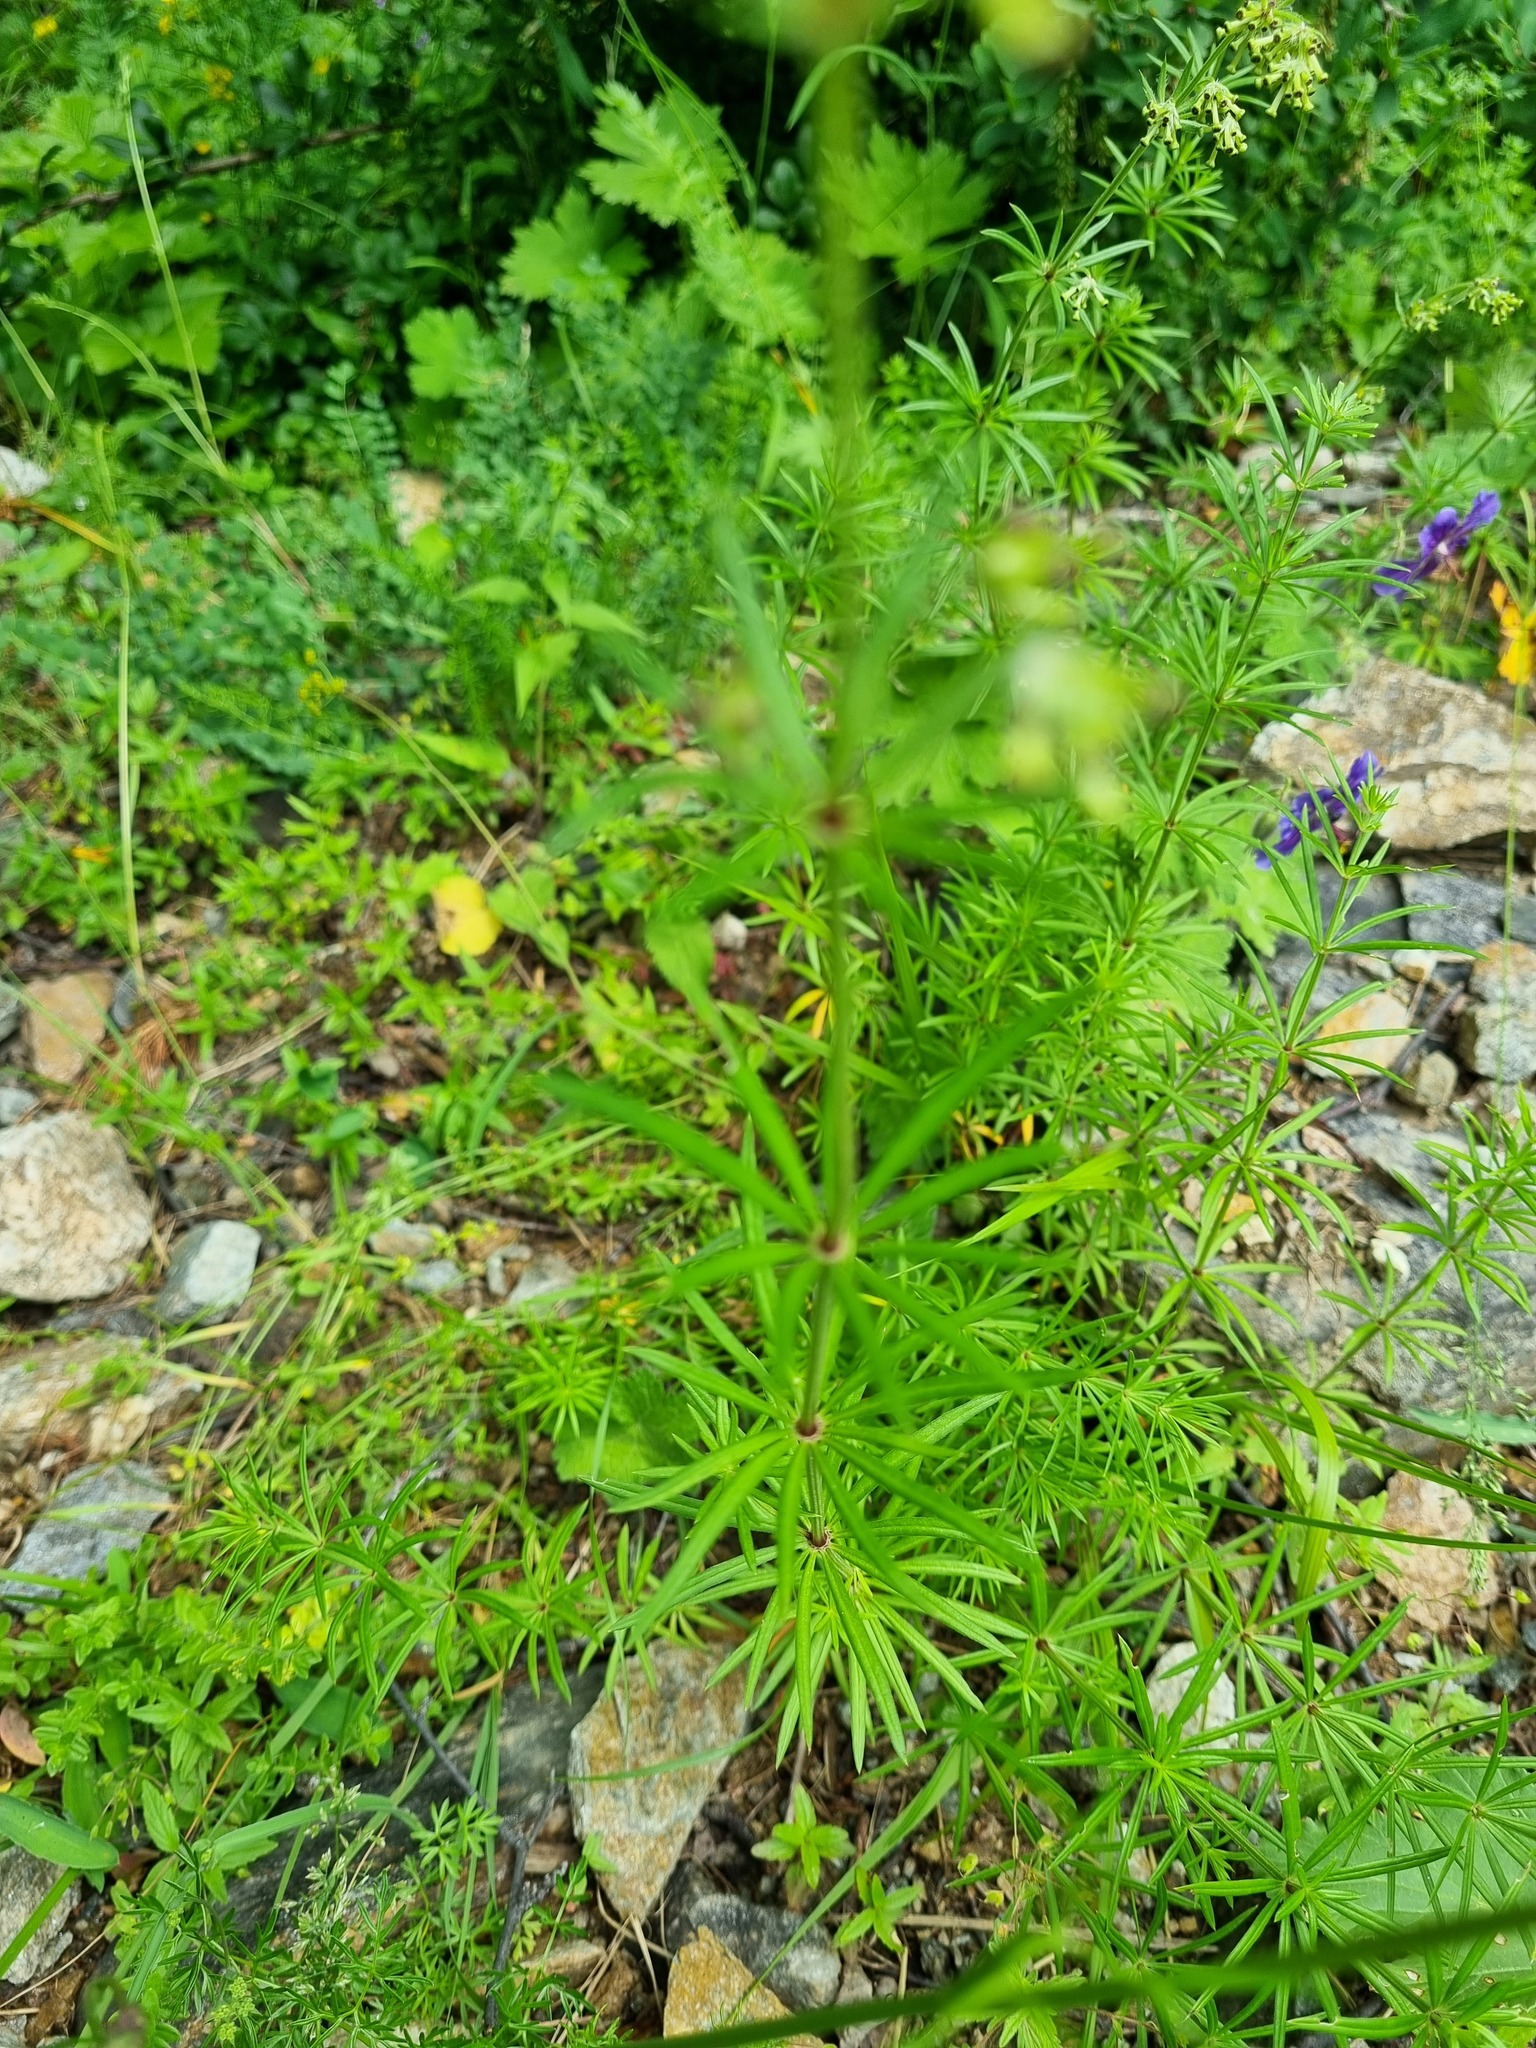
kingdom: Plantae
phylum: Tracheophyta
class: Magnoliopsida
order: Gentianales
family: Rubiaceae
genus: Asperula
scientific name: Asperula molluginoides
